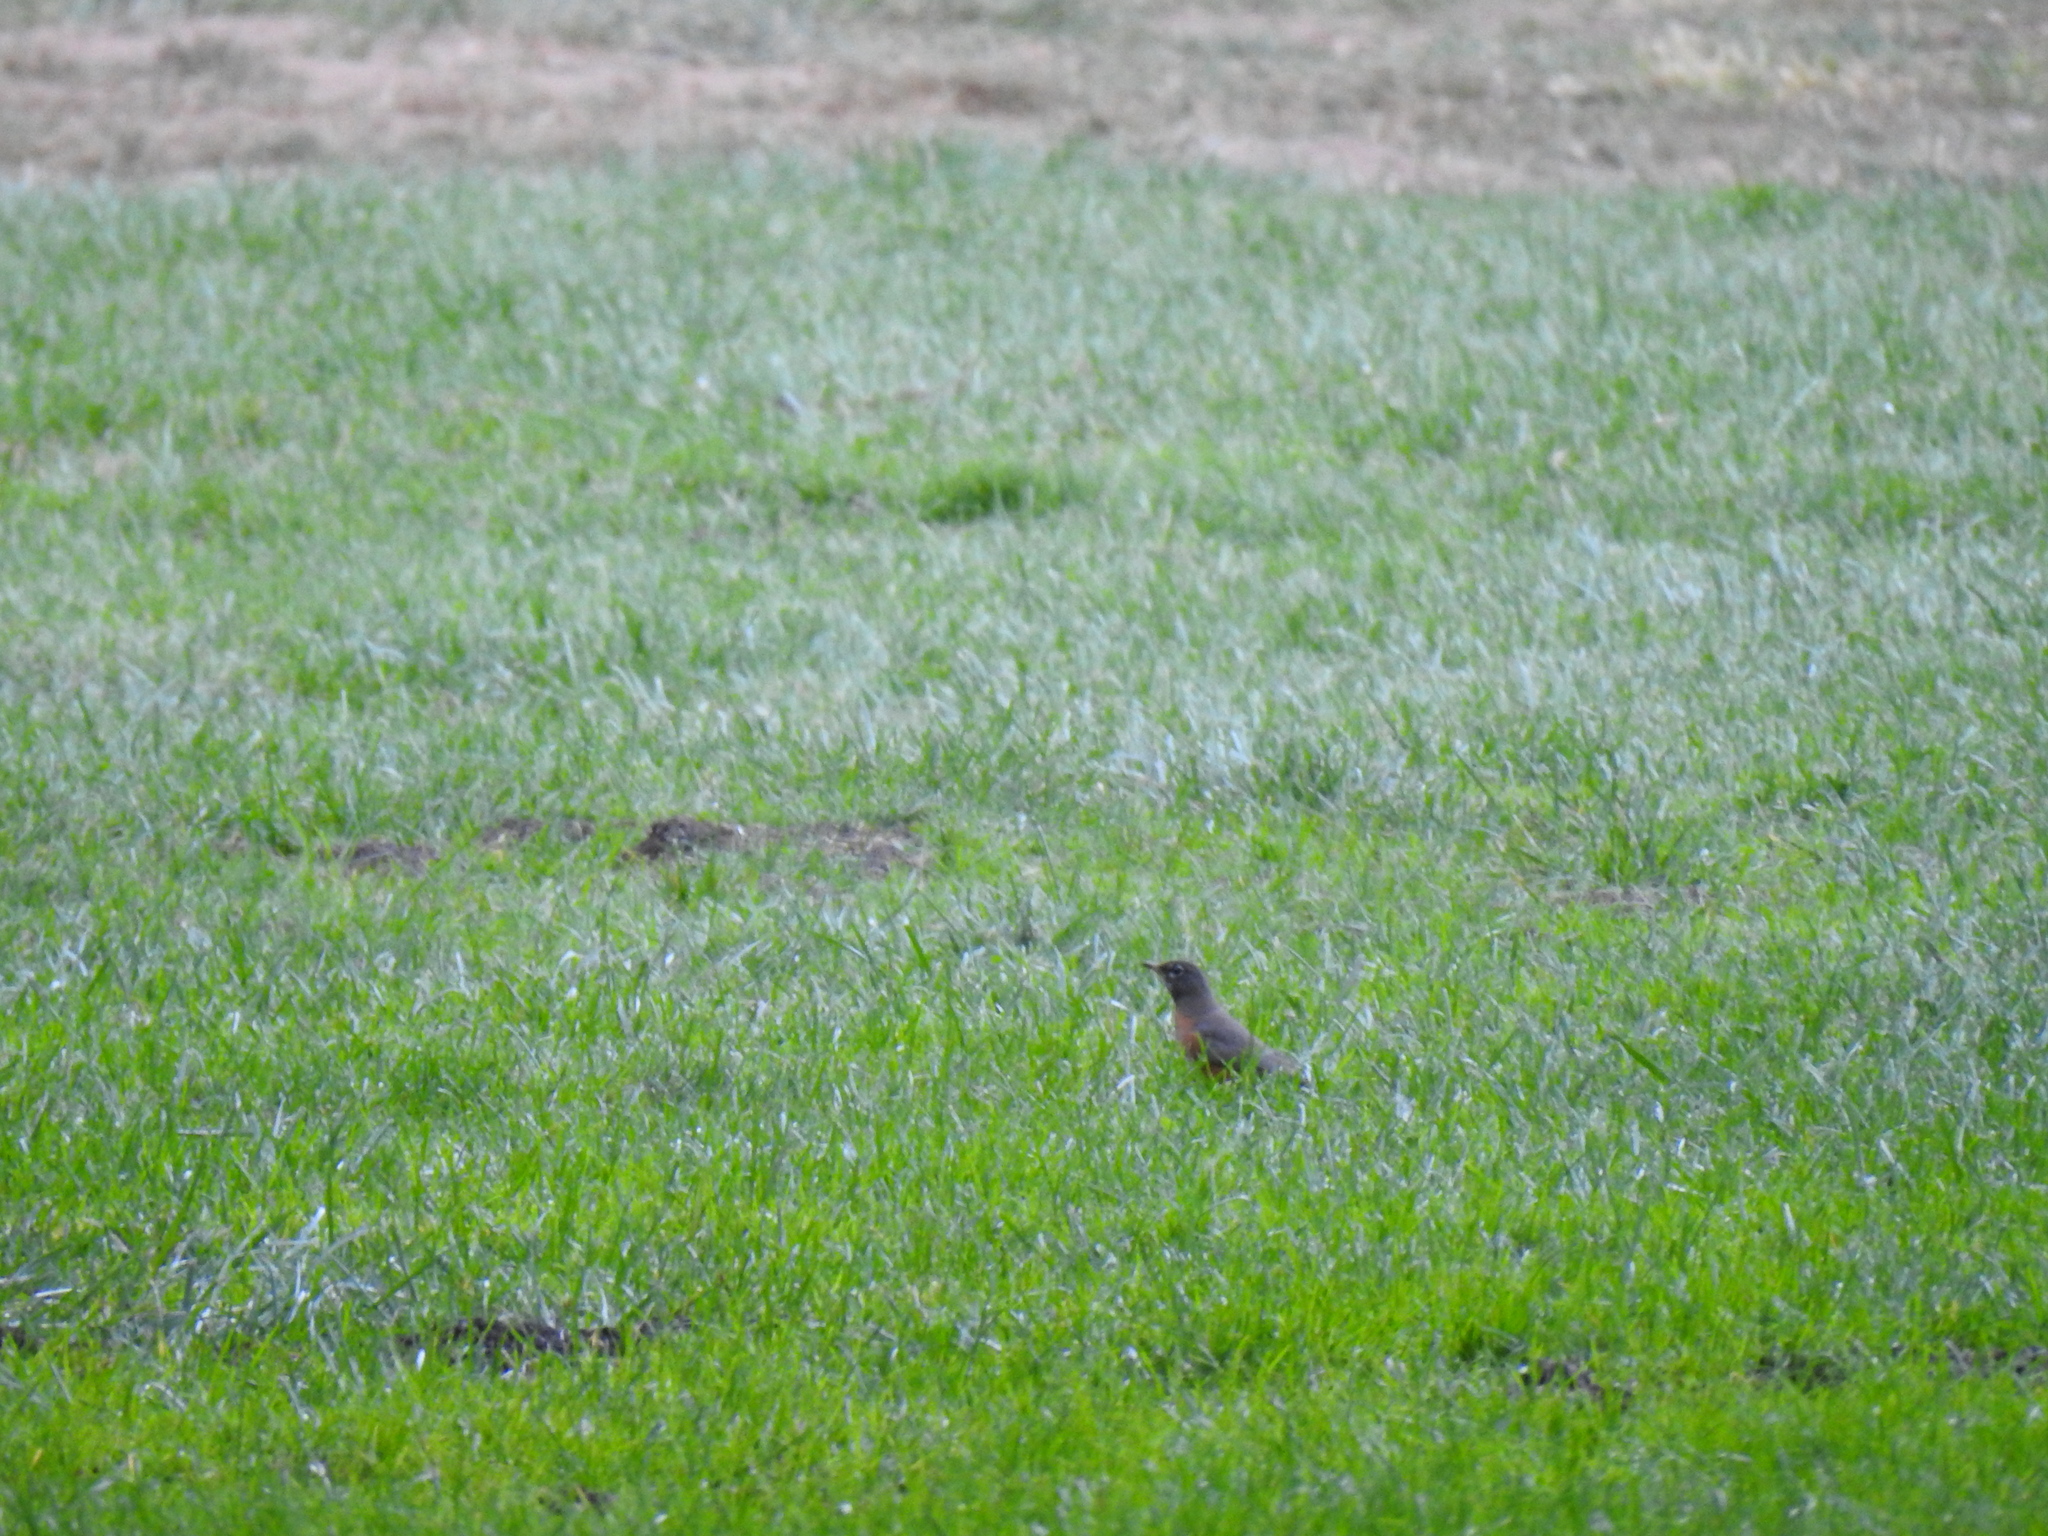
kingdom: Animalia
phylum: Chordata
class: Aves
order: Passeriformes
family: Turdidae
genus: Turdus
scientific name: Turdus migratorius
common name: American robin
